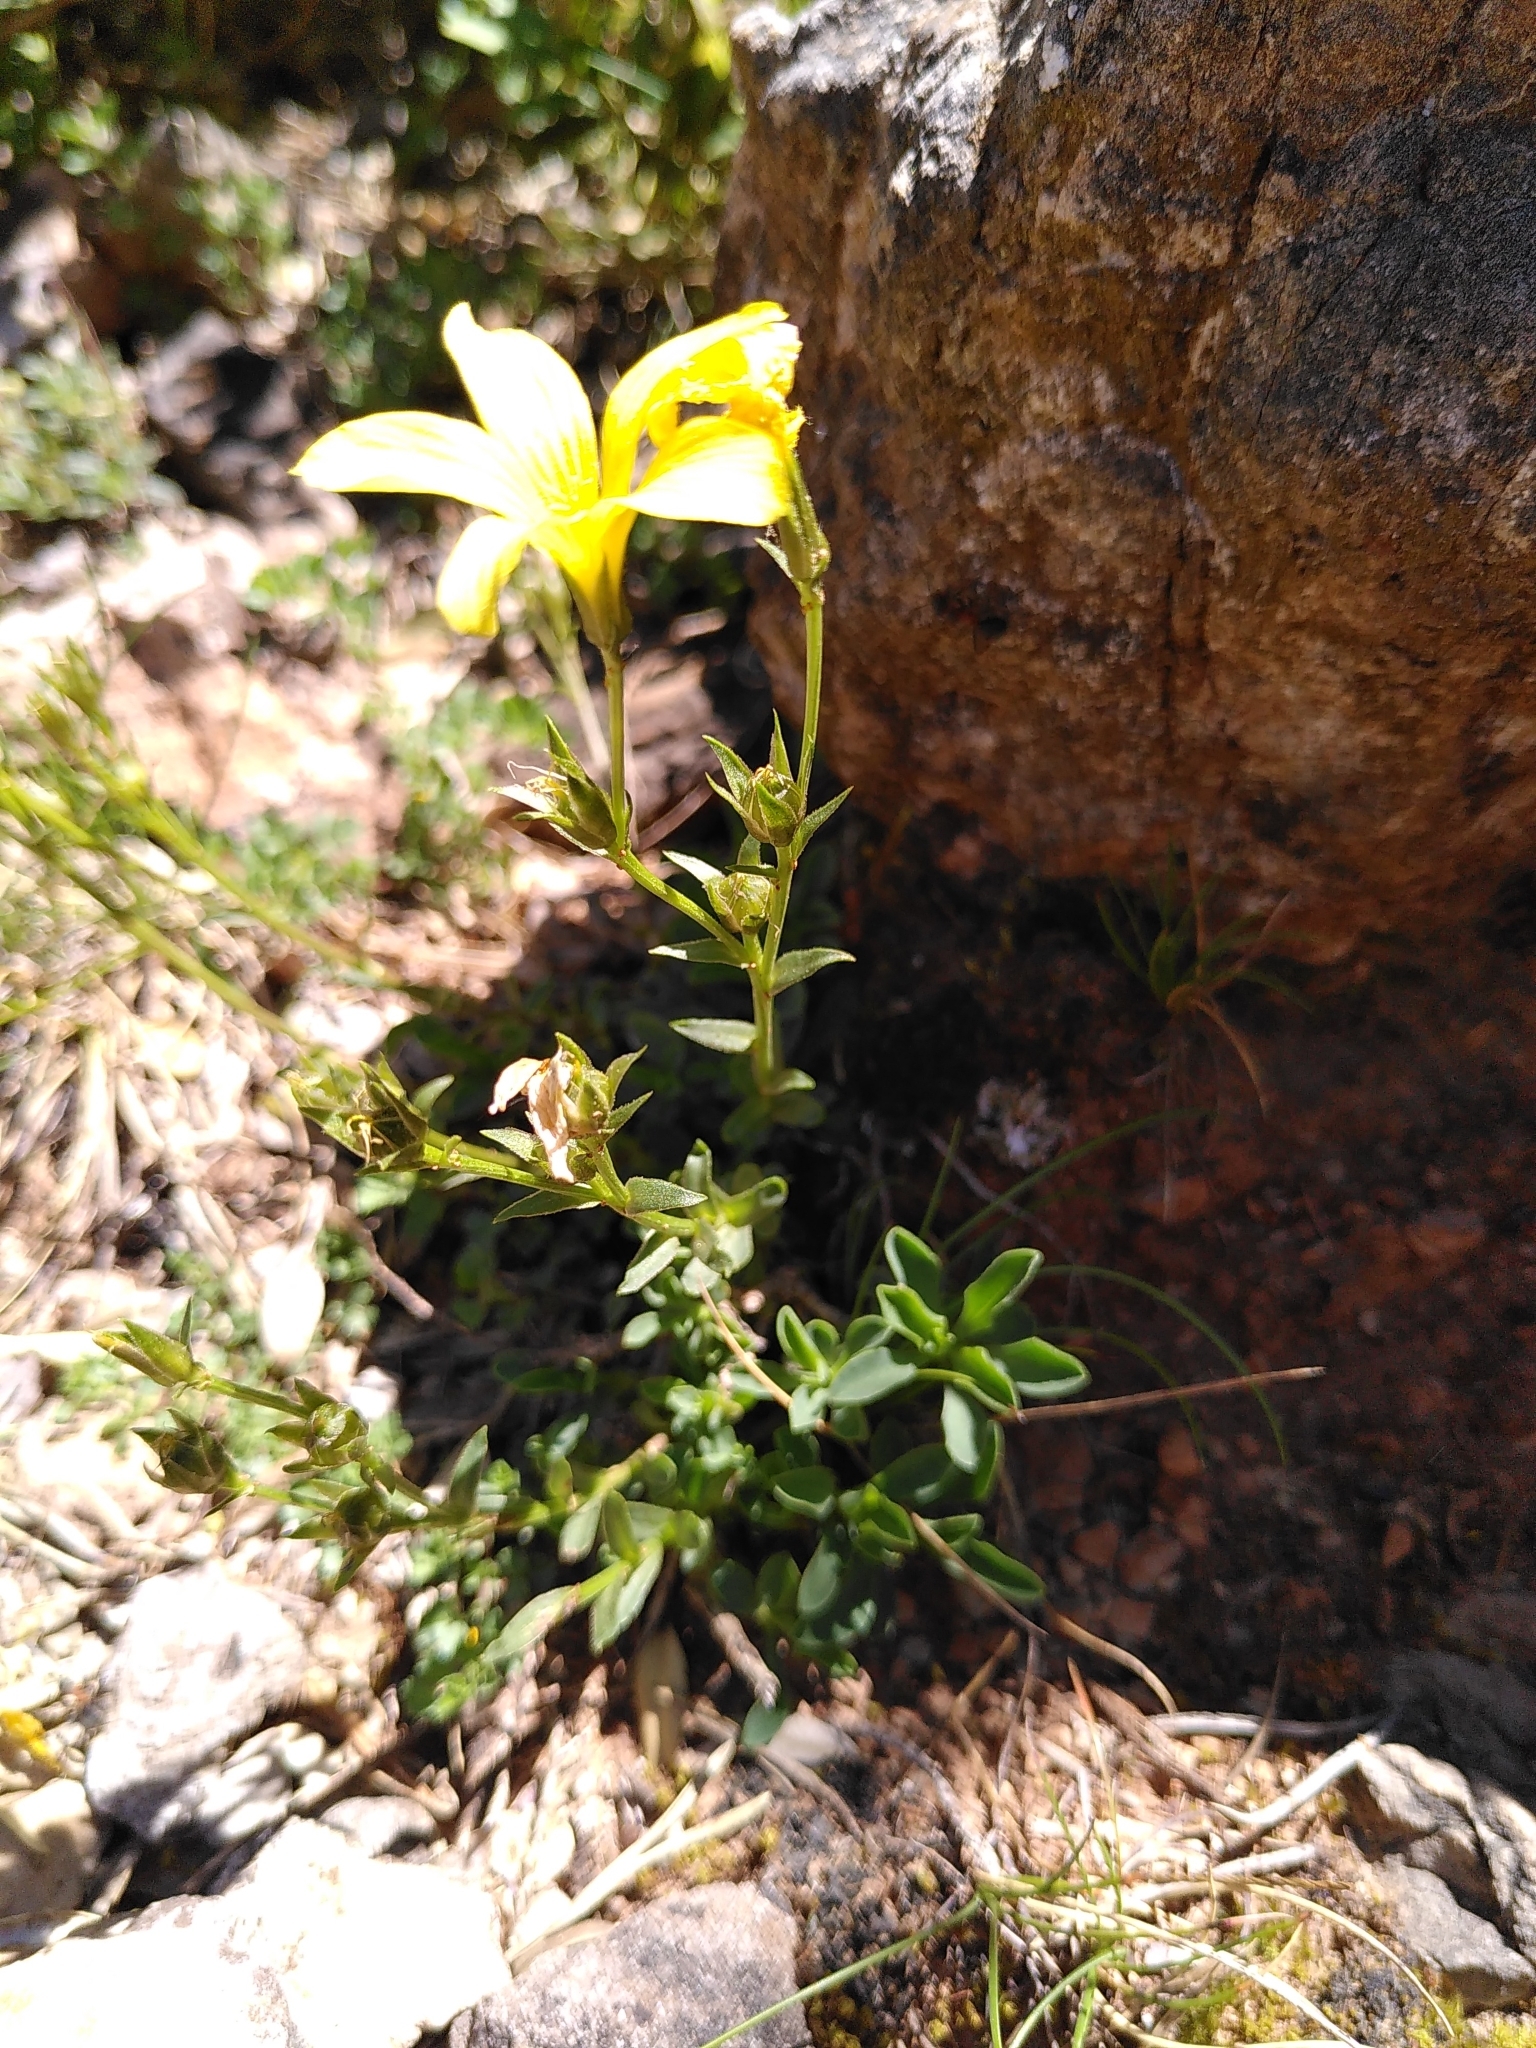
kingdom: Plantae
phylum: Tracheophyta
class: Magnoliopsida
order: Malpighiales
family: Linaceae
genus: Linum
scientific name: Linum campanulatum
